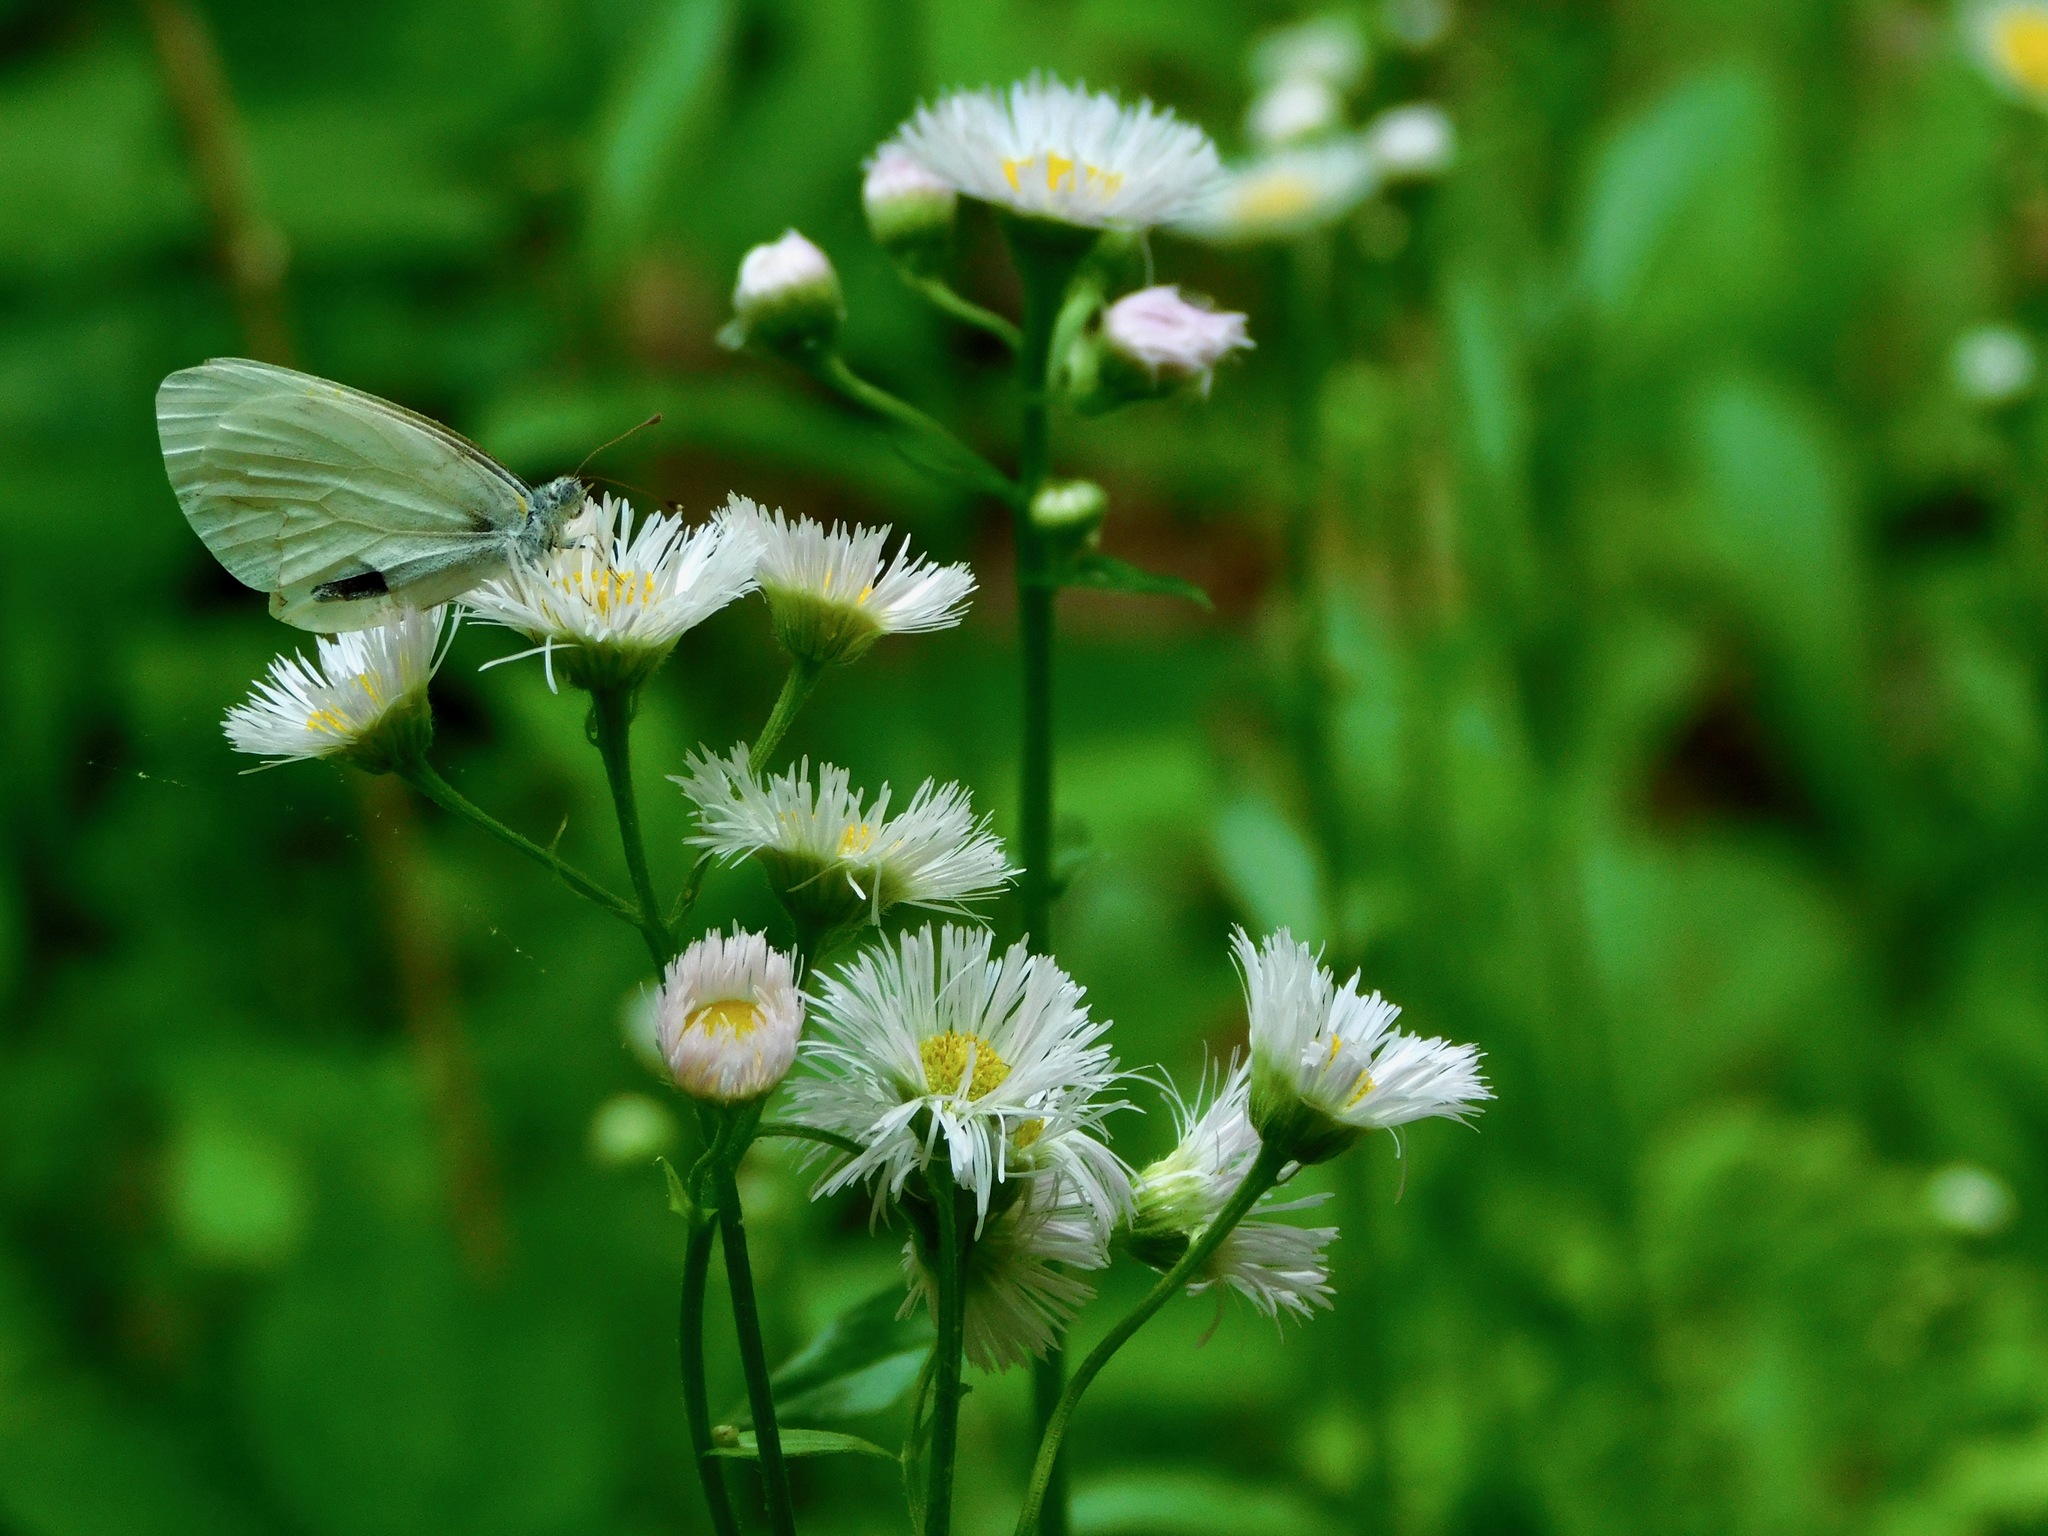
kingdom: Plantae
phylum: Tracheophyta
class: Magnoliopsida
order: Asterales
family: Asteraceae
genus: Erigeron
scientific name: Erigeron philadelphicus
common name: Robin's-plantain
